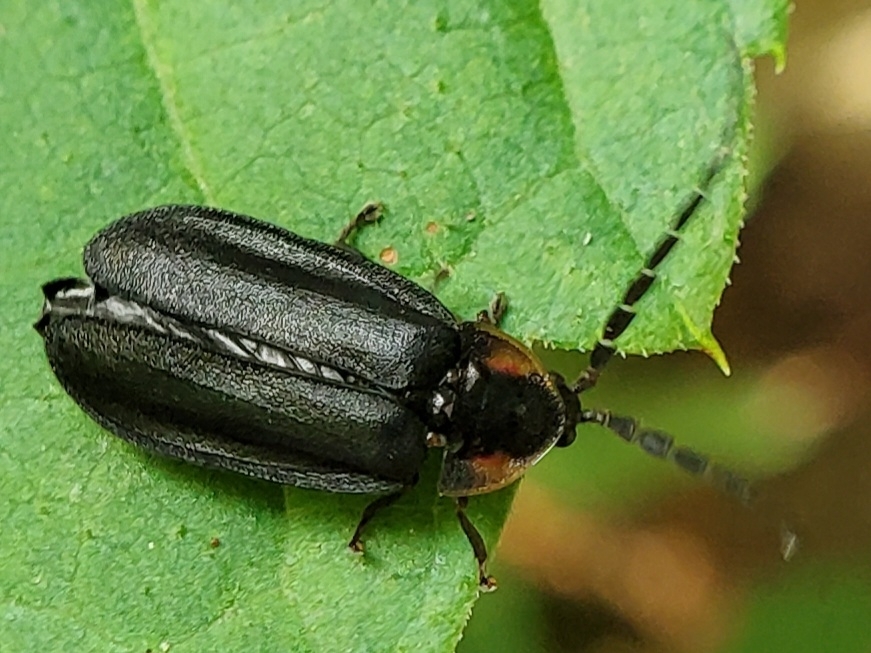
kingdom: Animalia
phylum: Arthropoda
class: Insecta
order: Coleoptera
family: Lampyridae
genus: Lucidota
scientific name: Lucidota atra
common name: Black firefly
